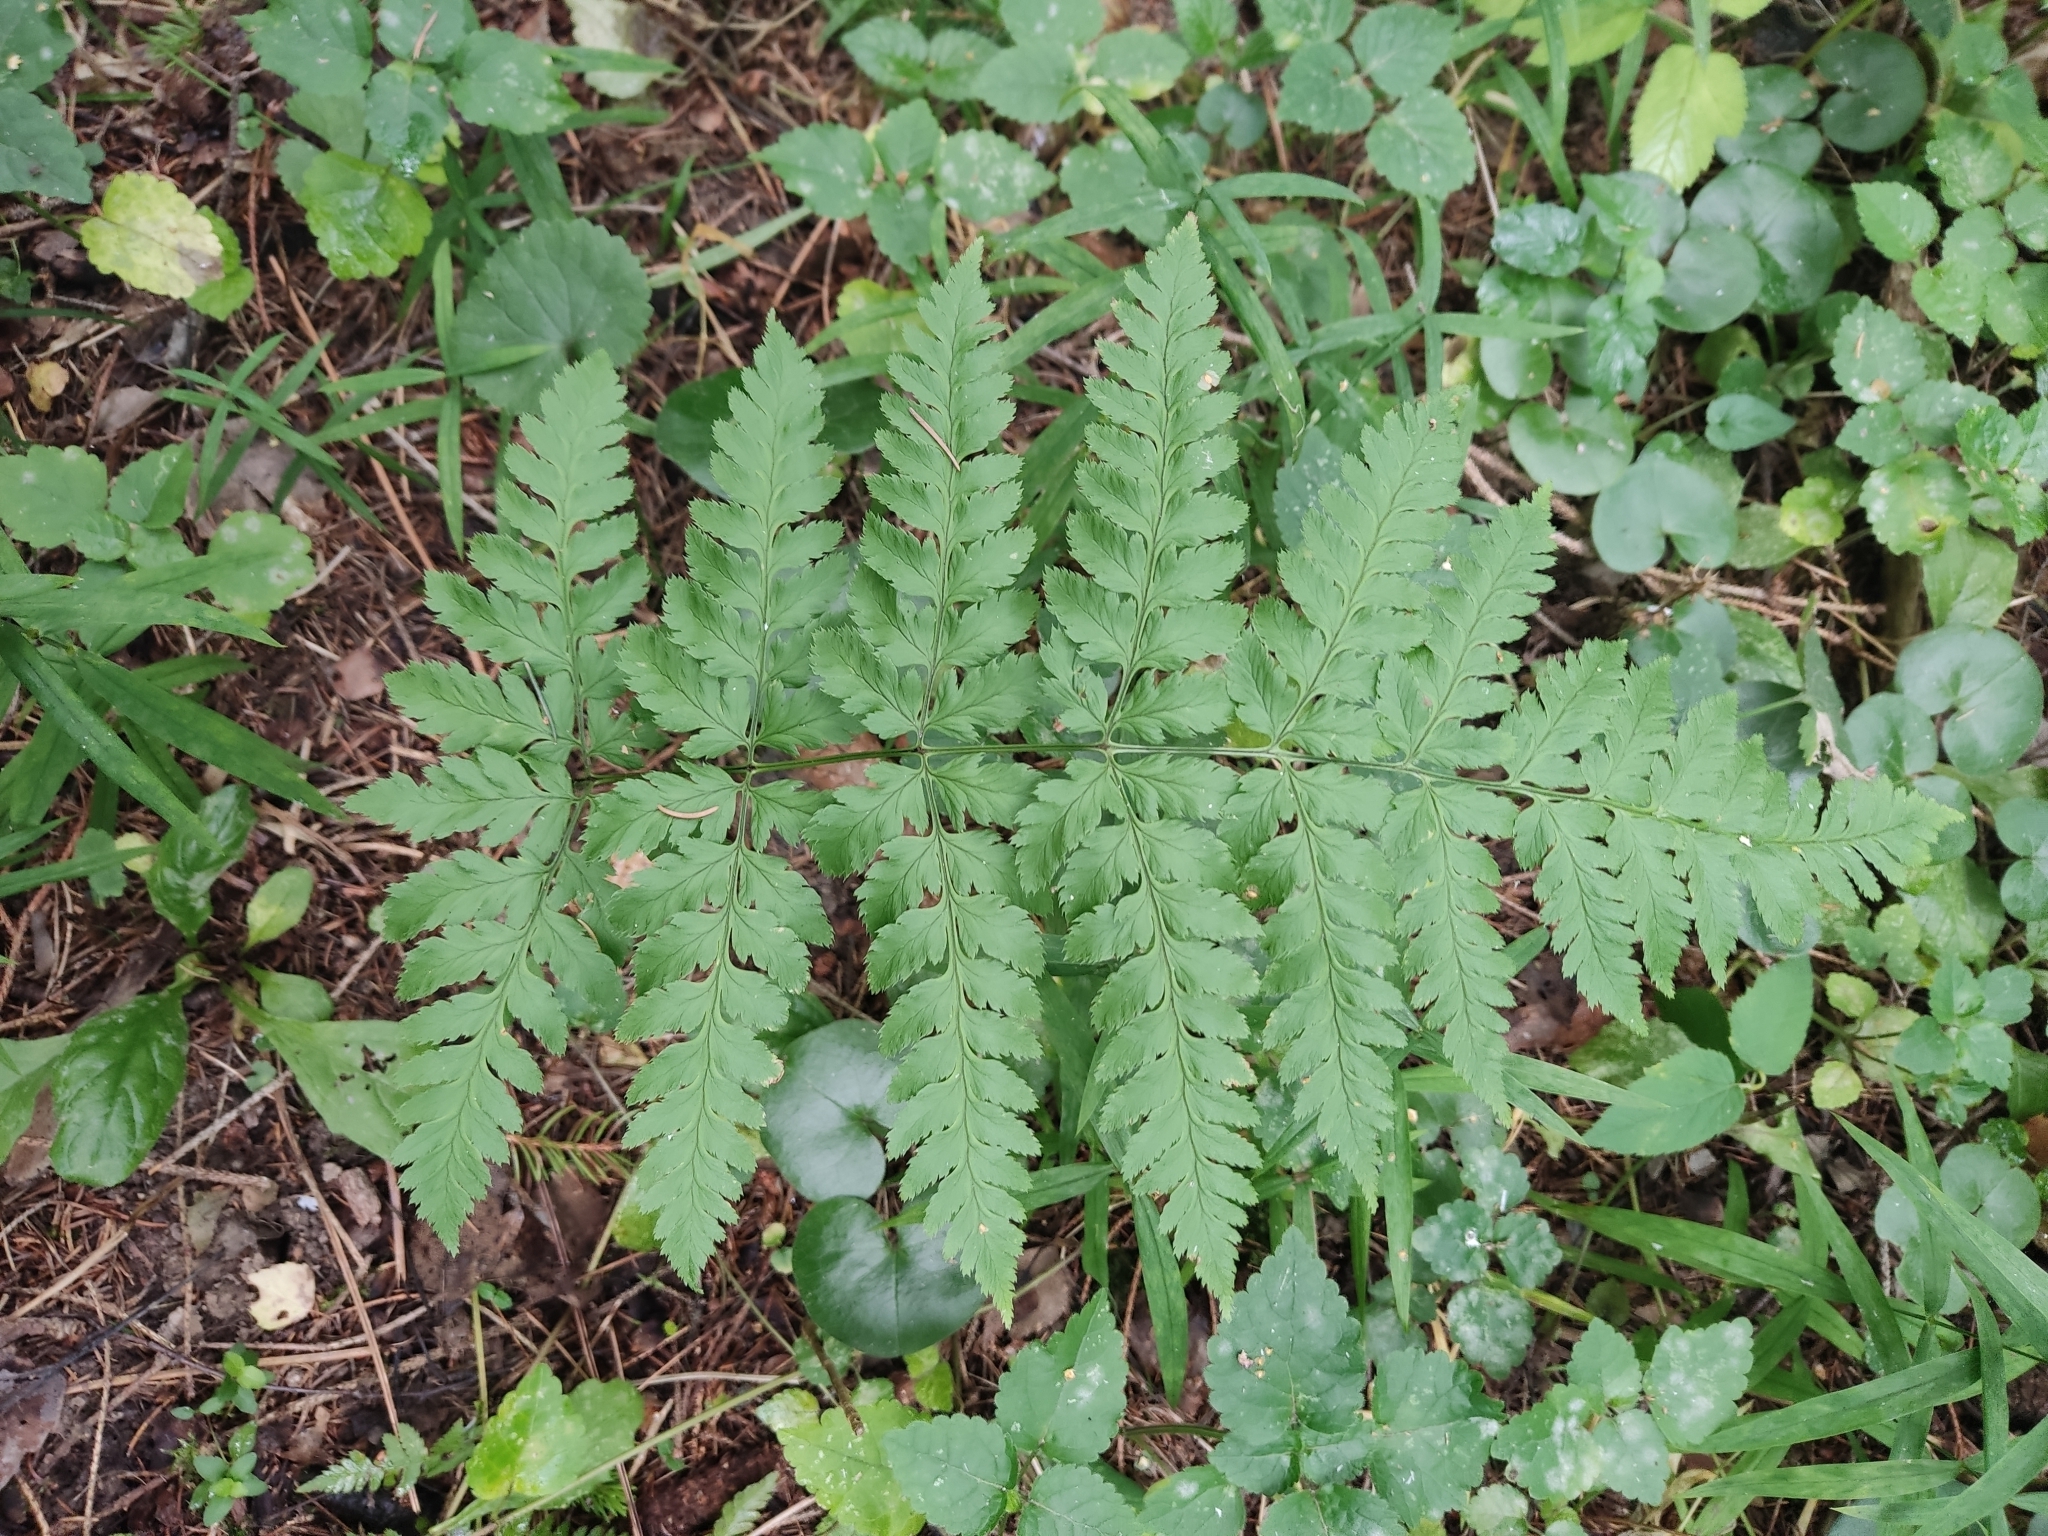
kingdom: Plantae
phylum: Tracheophyta
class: Polypodiopsida
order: Polypodiales
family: Dryopteridaceae
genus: Dryopteris
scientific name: Dryopteris carthusiana
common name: Narrow buckler-fern
